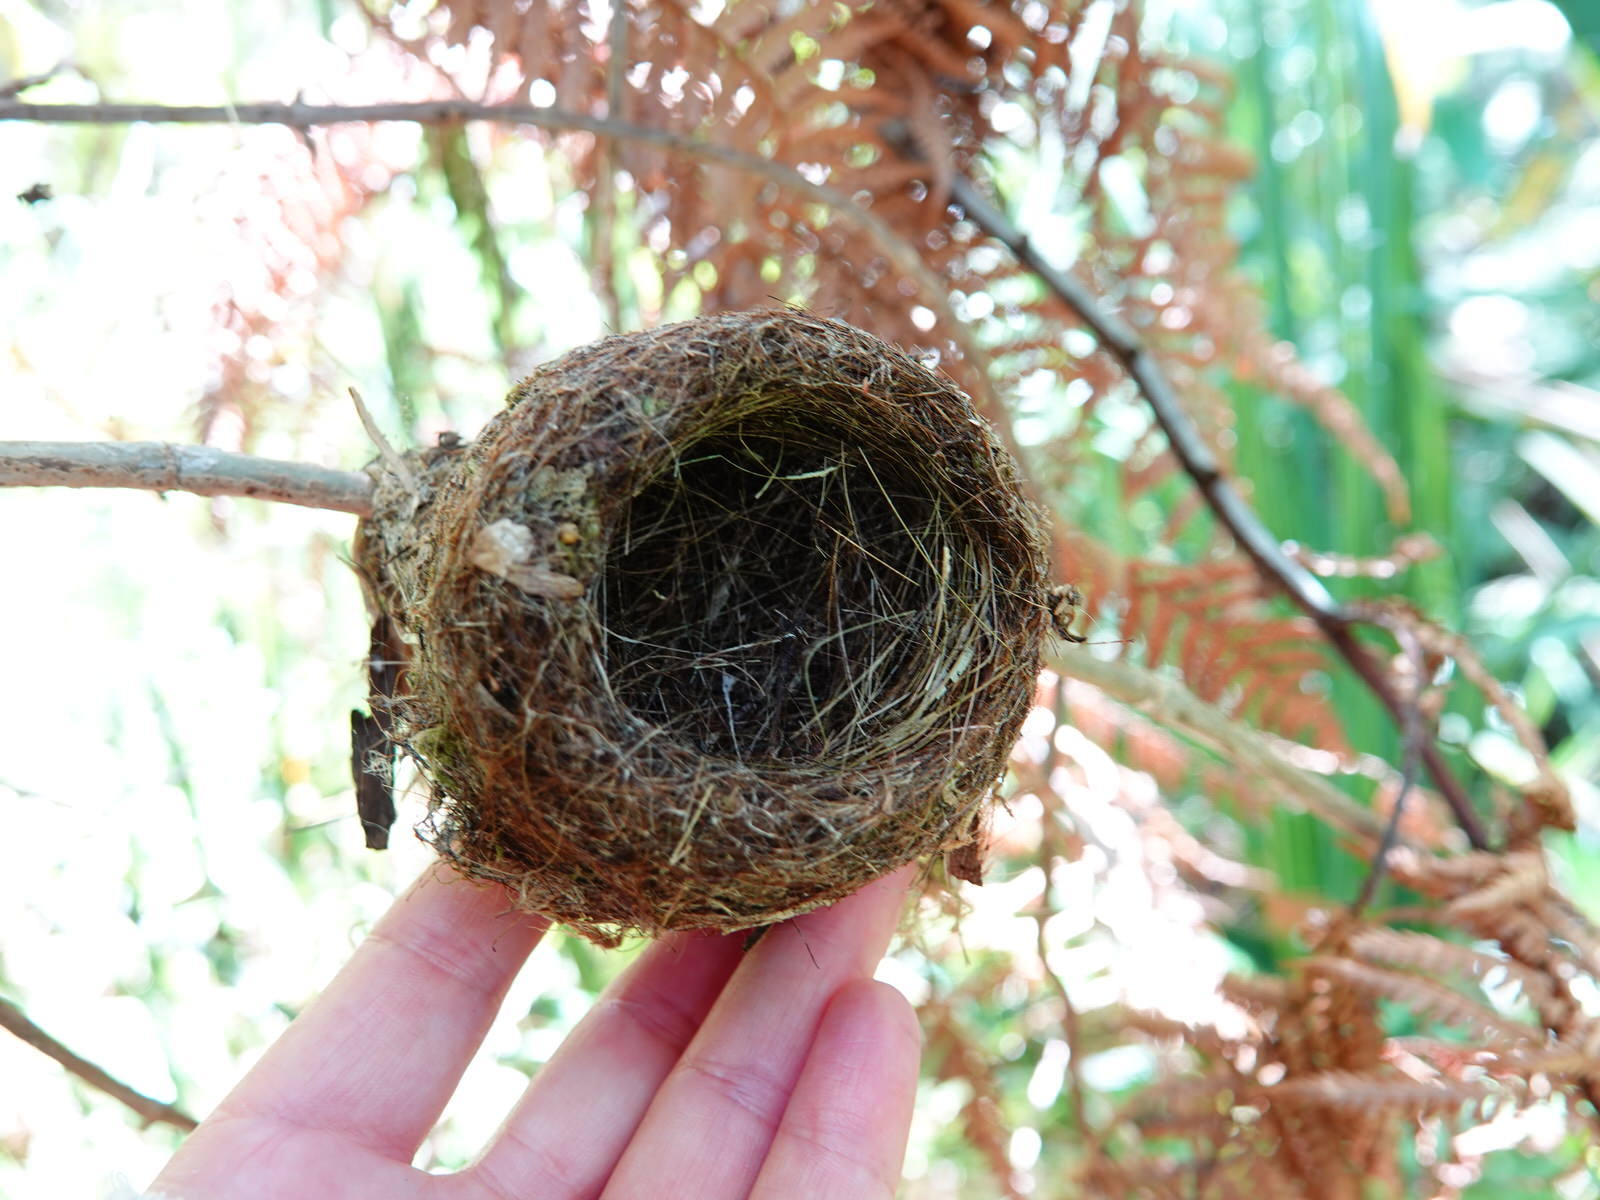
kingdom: Animalia
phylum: Chordata
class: Aves
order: Passeriformes
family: Rhipiduridae
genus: Rhipidura
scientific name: Rhipidura fuliginosa
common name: New zealand fantail
